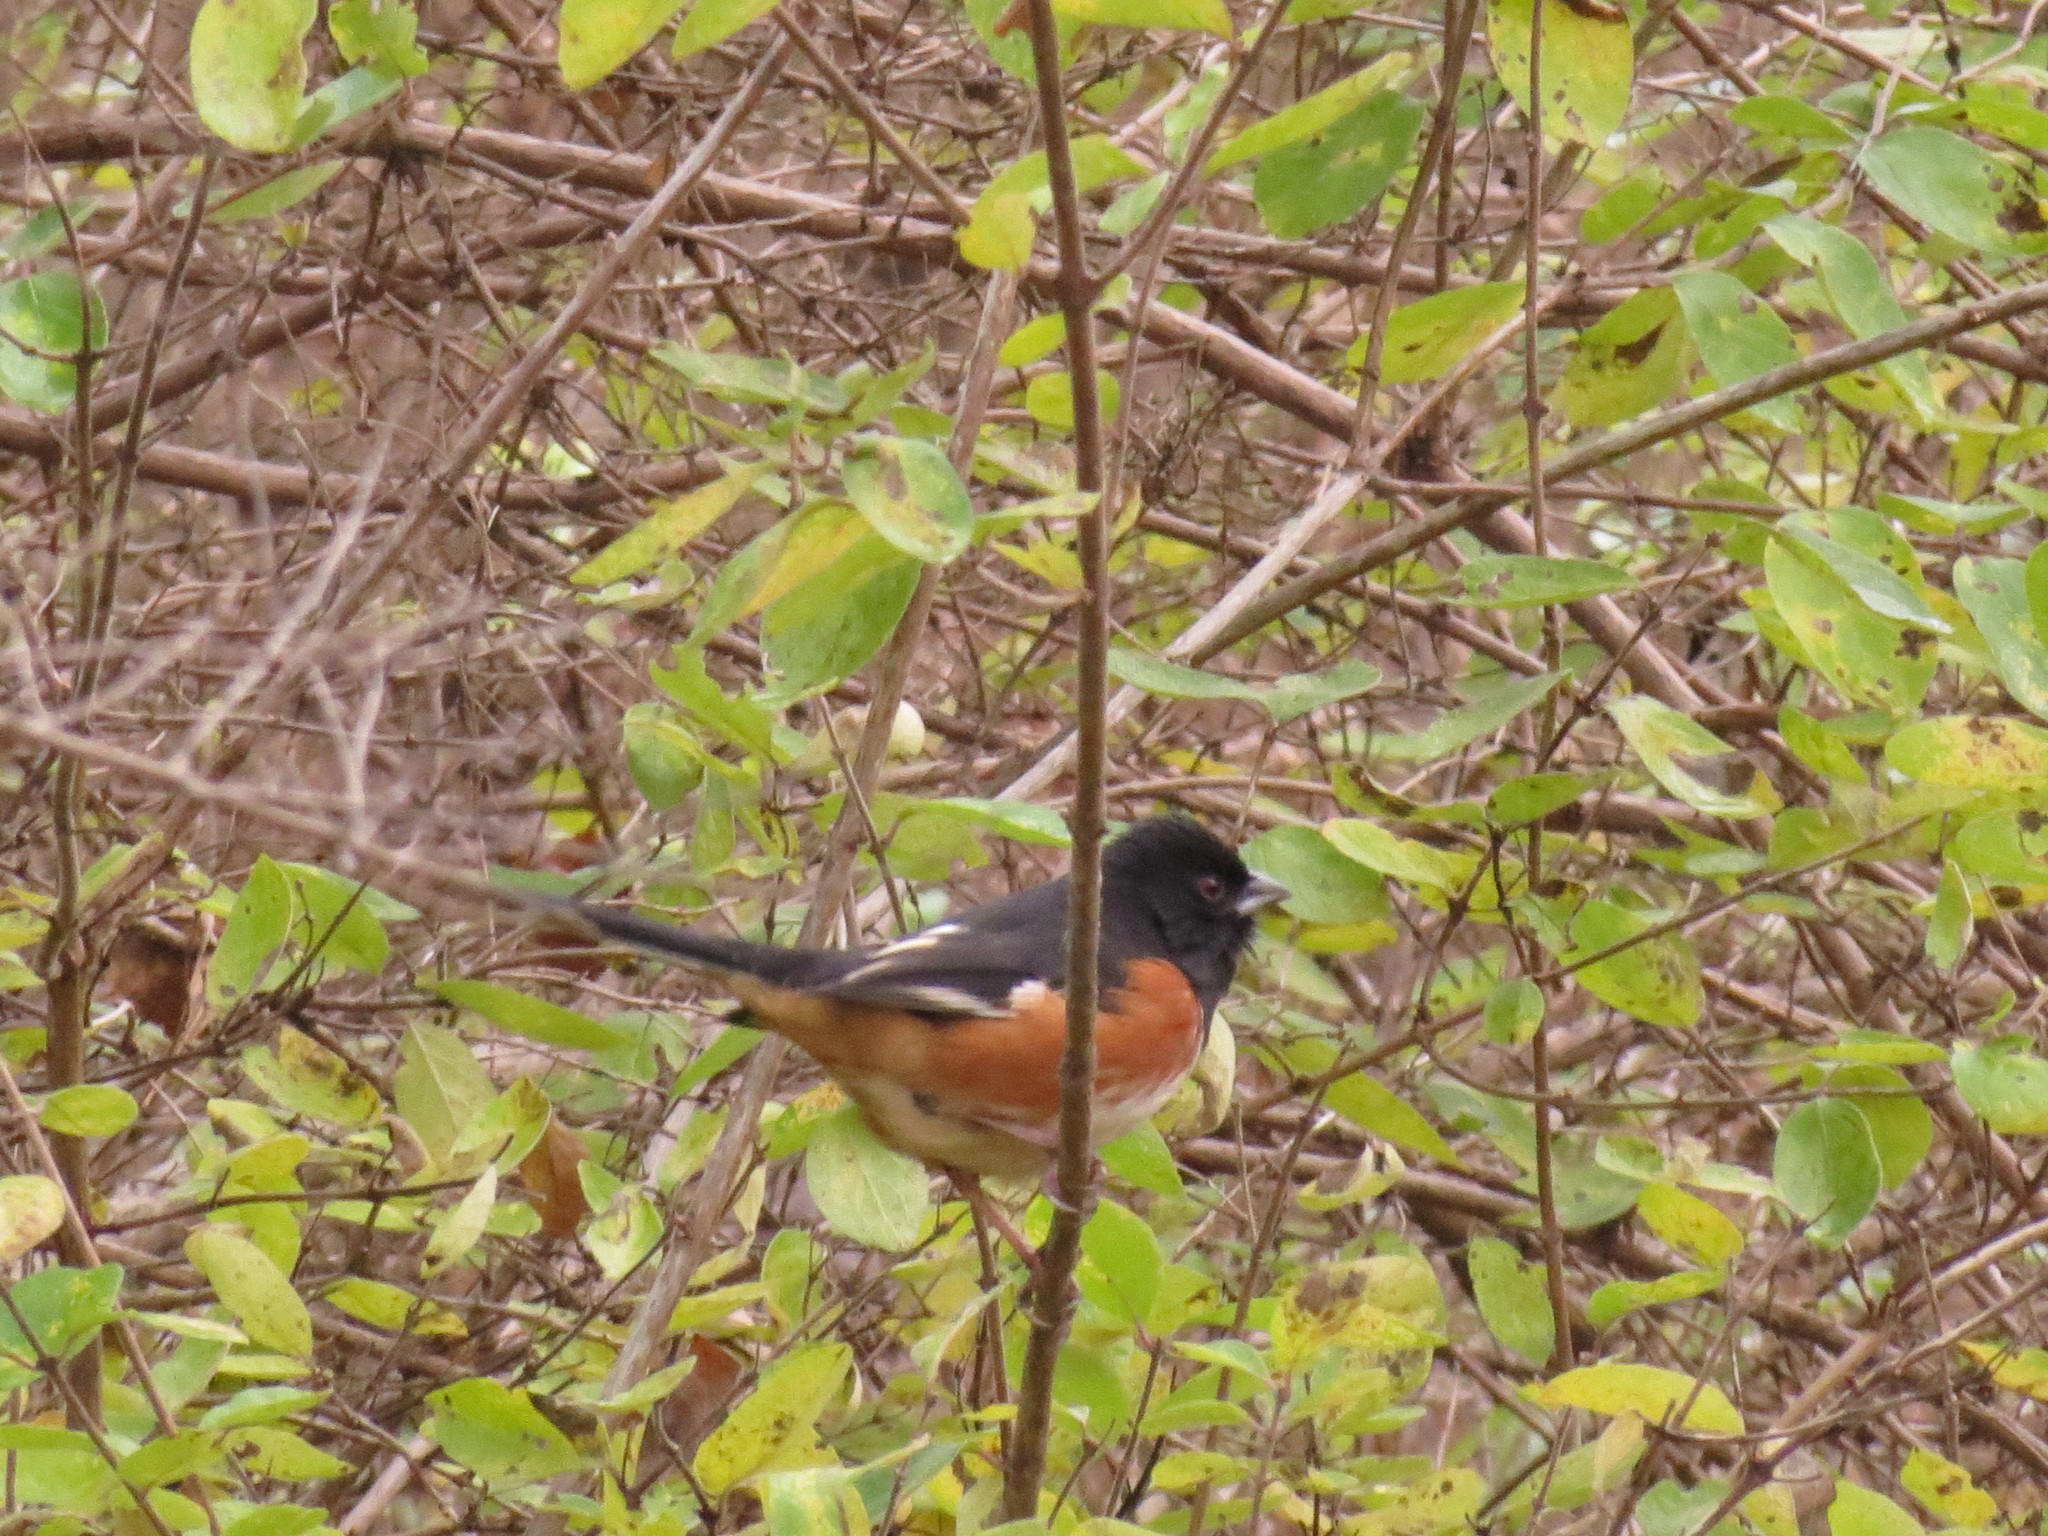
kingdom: Animalia
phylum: Chordata
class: Aves
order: Passeriformes
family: Passerellidae
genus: Pipilo
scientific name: Pipilo erythrophthalmus
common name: Eastern towhee
